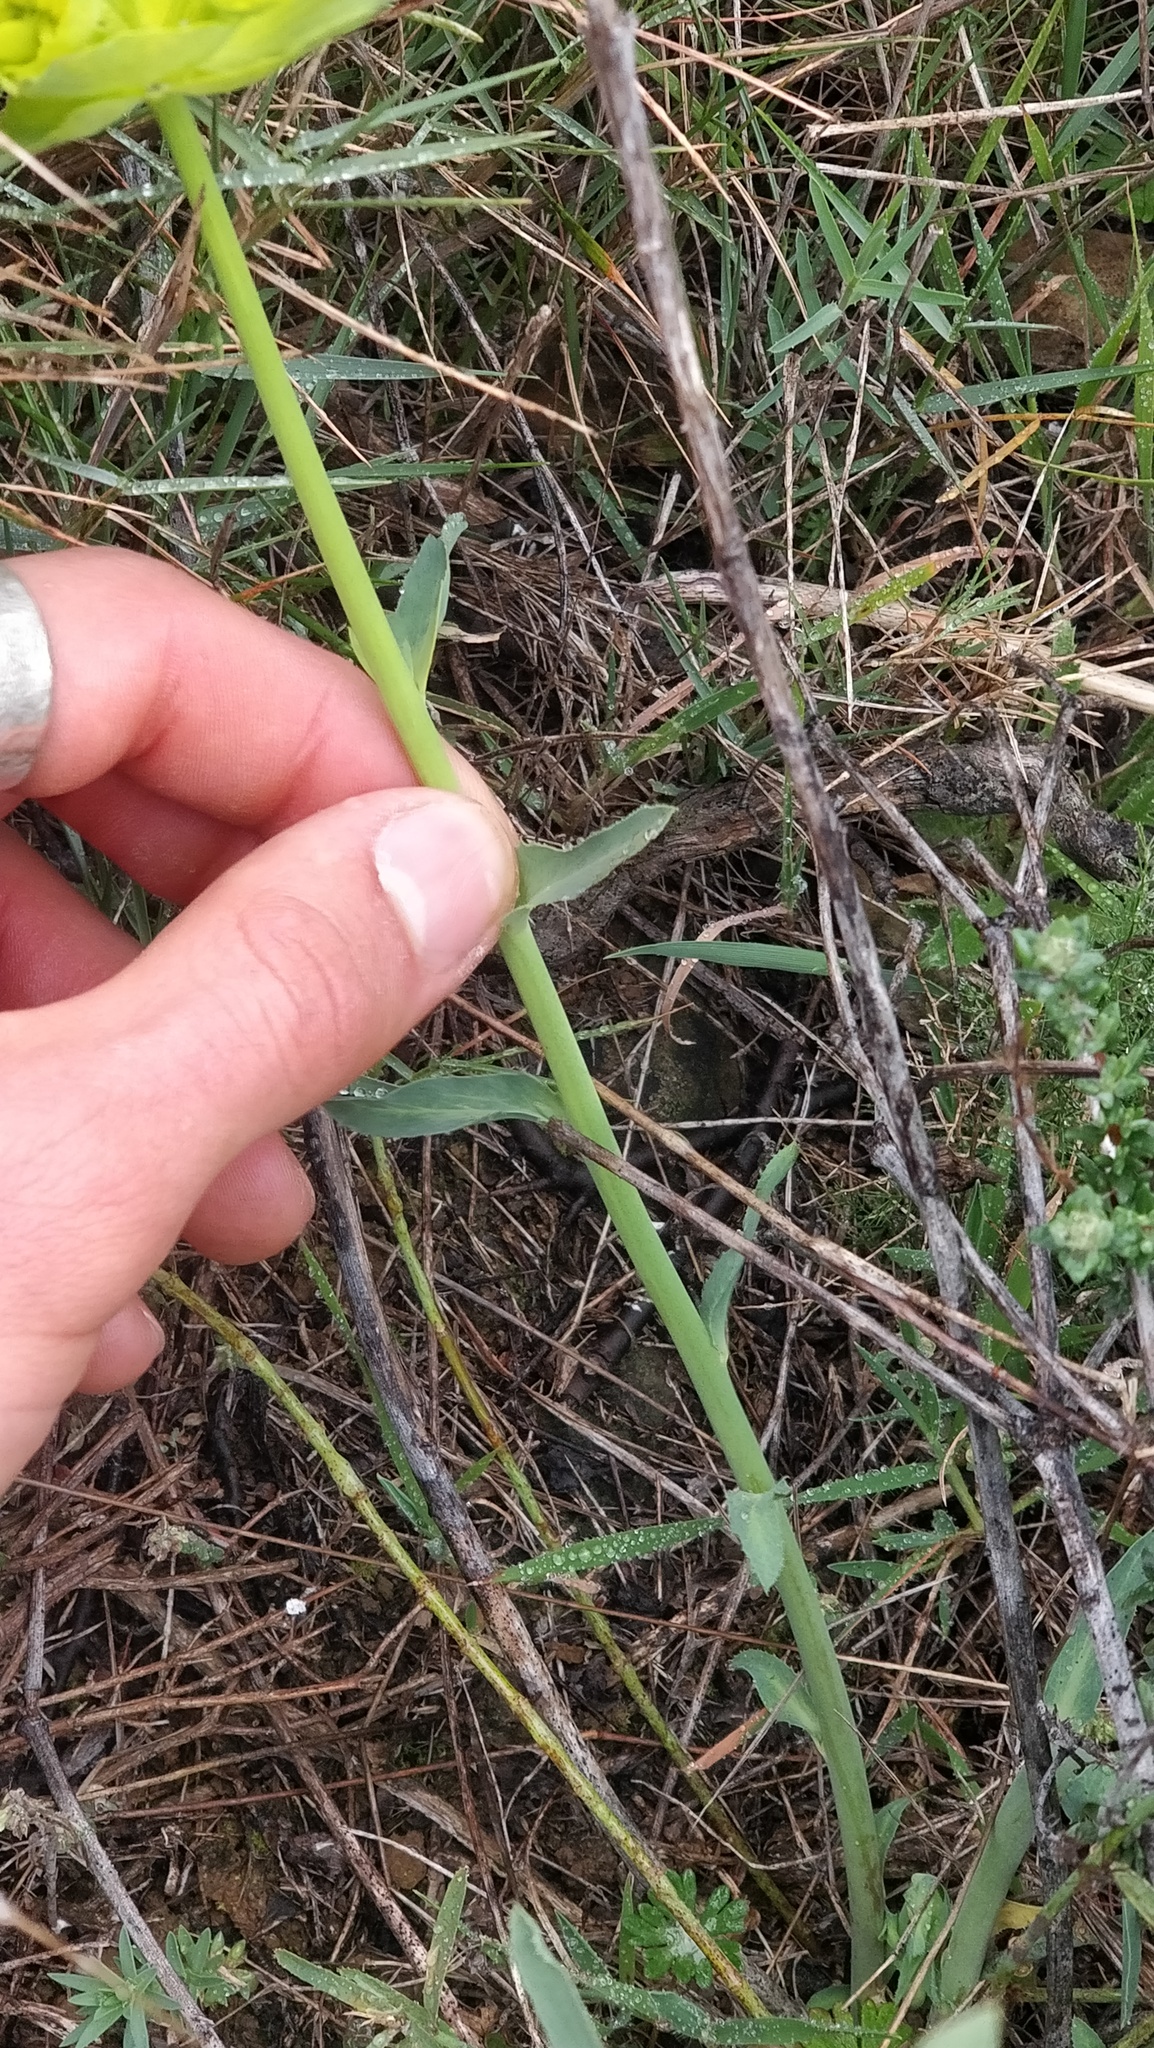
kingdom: Plantae
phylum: Tracheophyta
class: Magnoliopsida
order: Malpighiales
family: Euphorbiaceae
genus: Euphorbia
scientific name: Euphorbia serrata
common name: Serrate spurge
